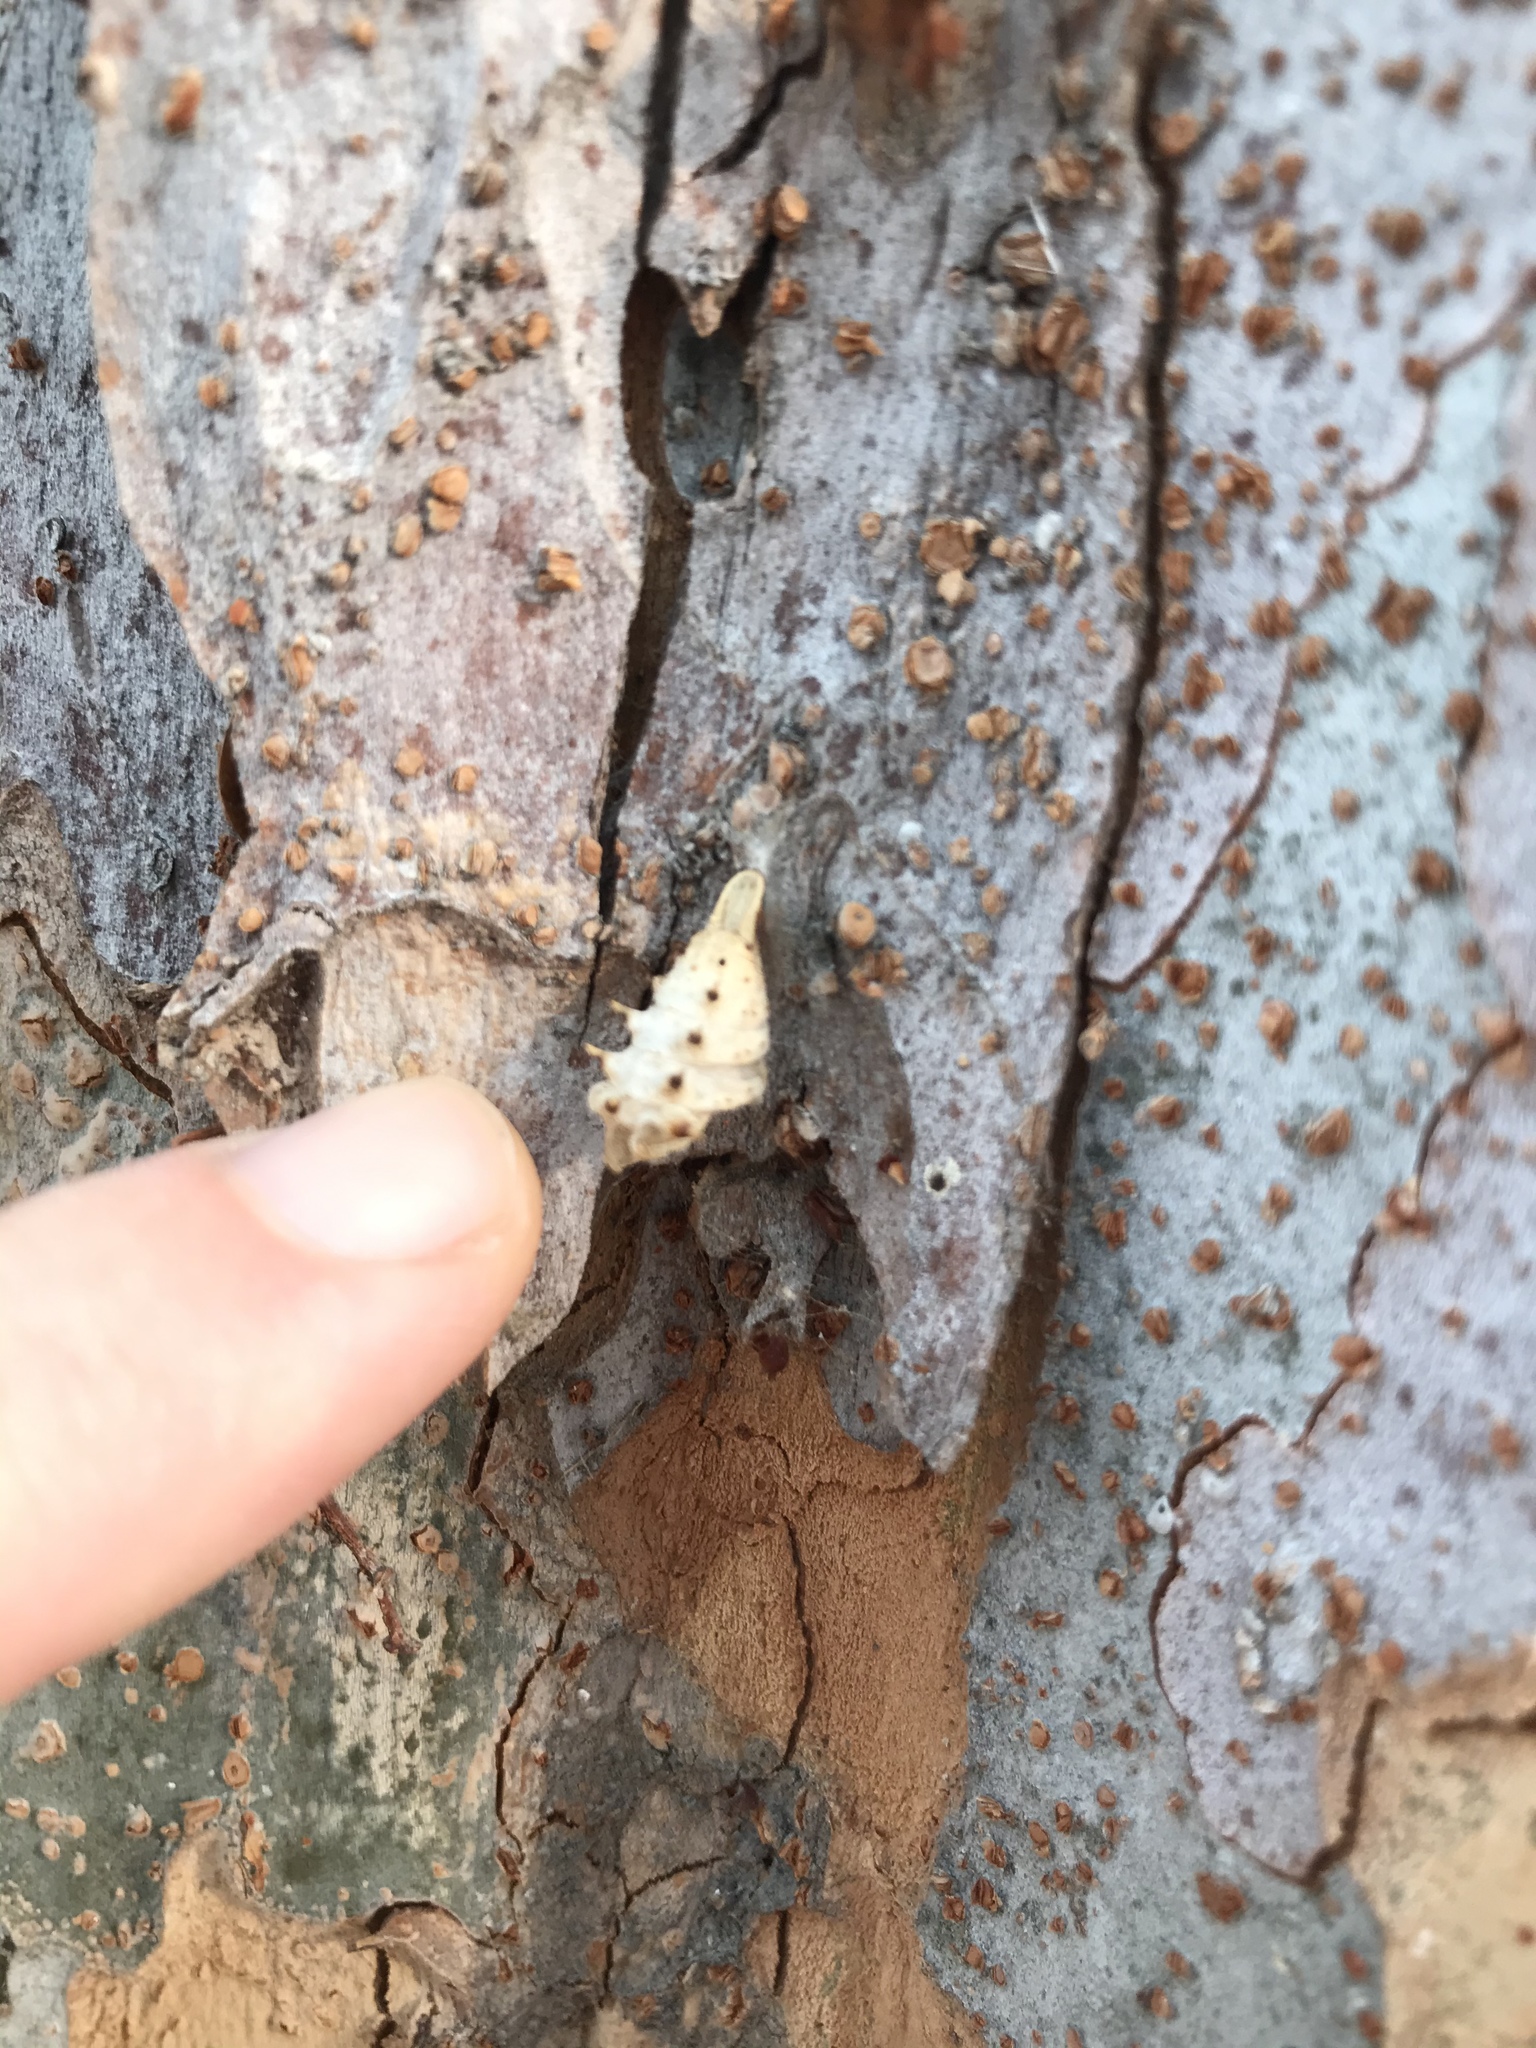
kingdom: Animalia
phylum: Arthropoda
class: Insecta
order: Lepidoptera
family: Nymphalidae
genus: Nymphalis
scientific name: Nymphalis antiopa
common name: Camberwell beauty
